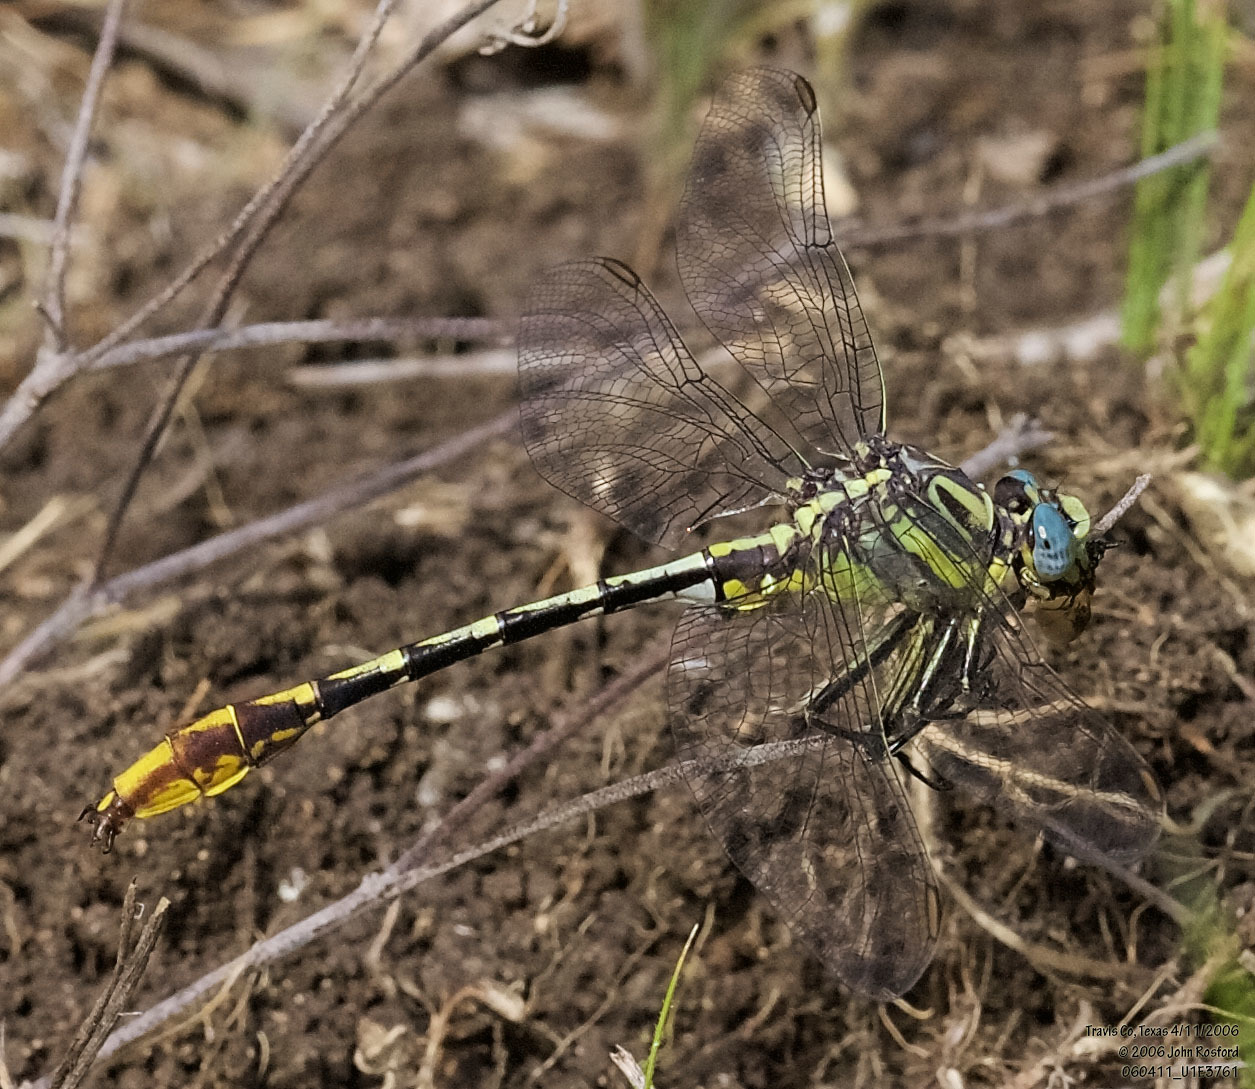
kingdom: Animalia
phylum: Arthropoda
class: Insecta
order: Odonata
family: Gomphidae
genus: Phanogomphus
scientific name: Phanogomphus militaris
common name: Sulphur-tipped clubtail
